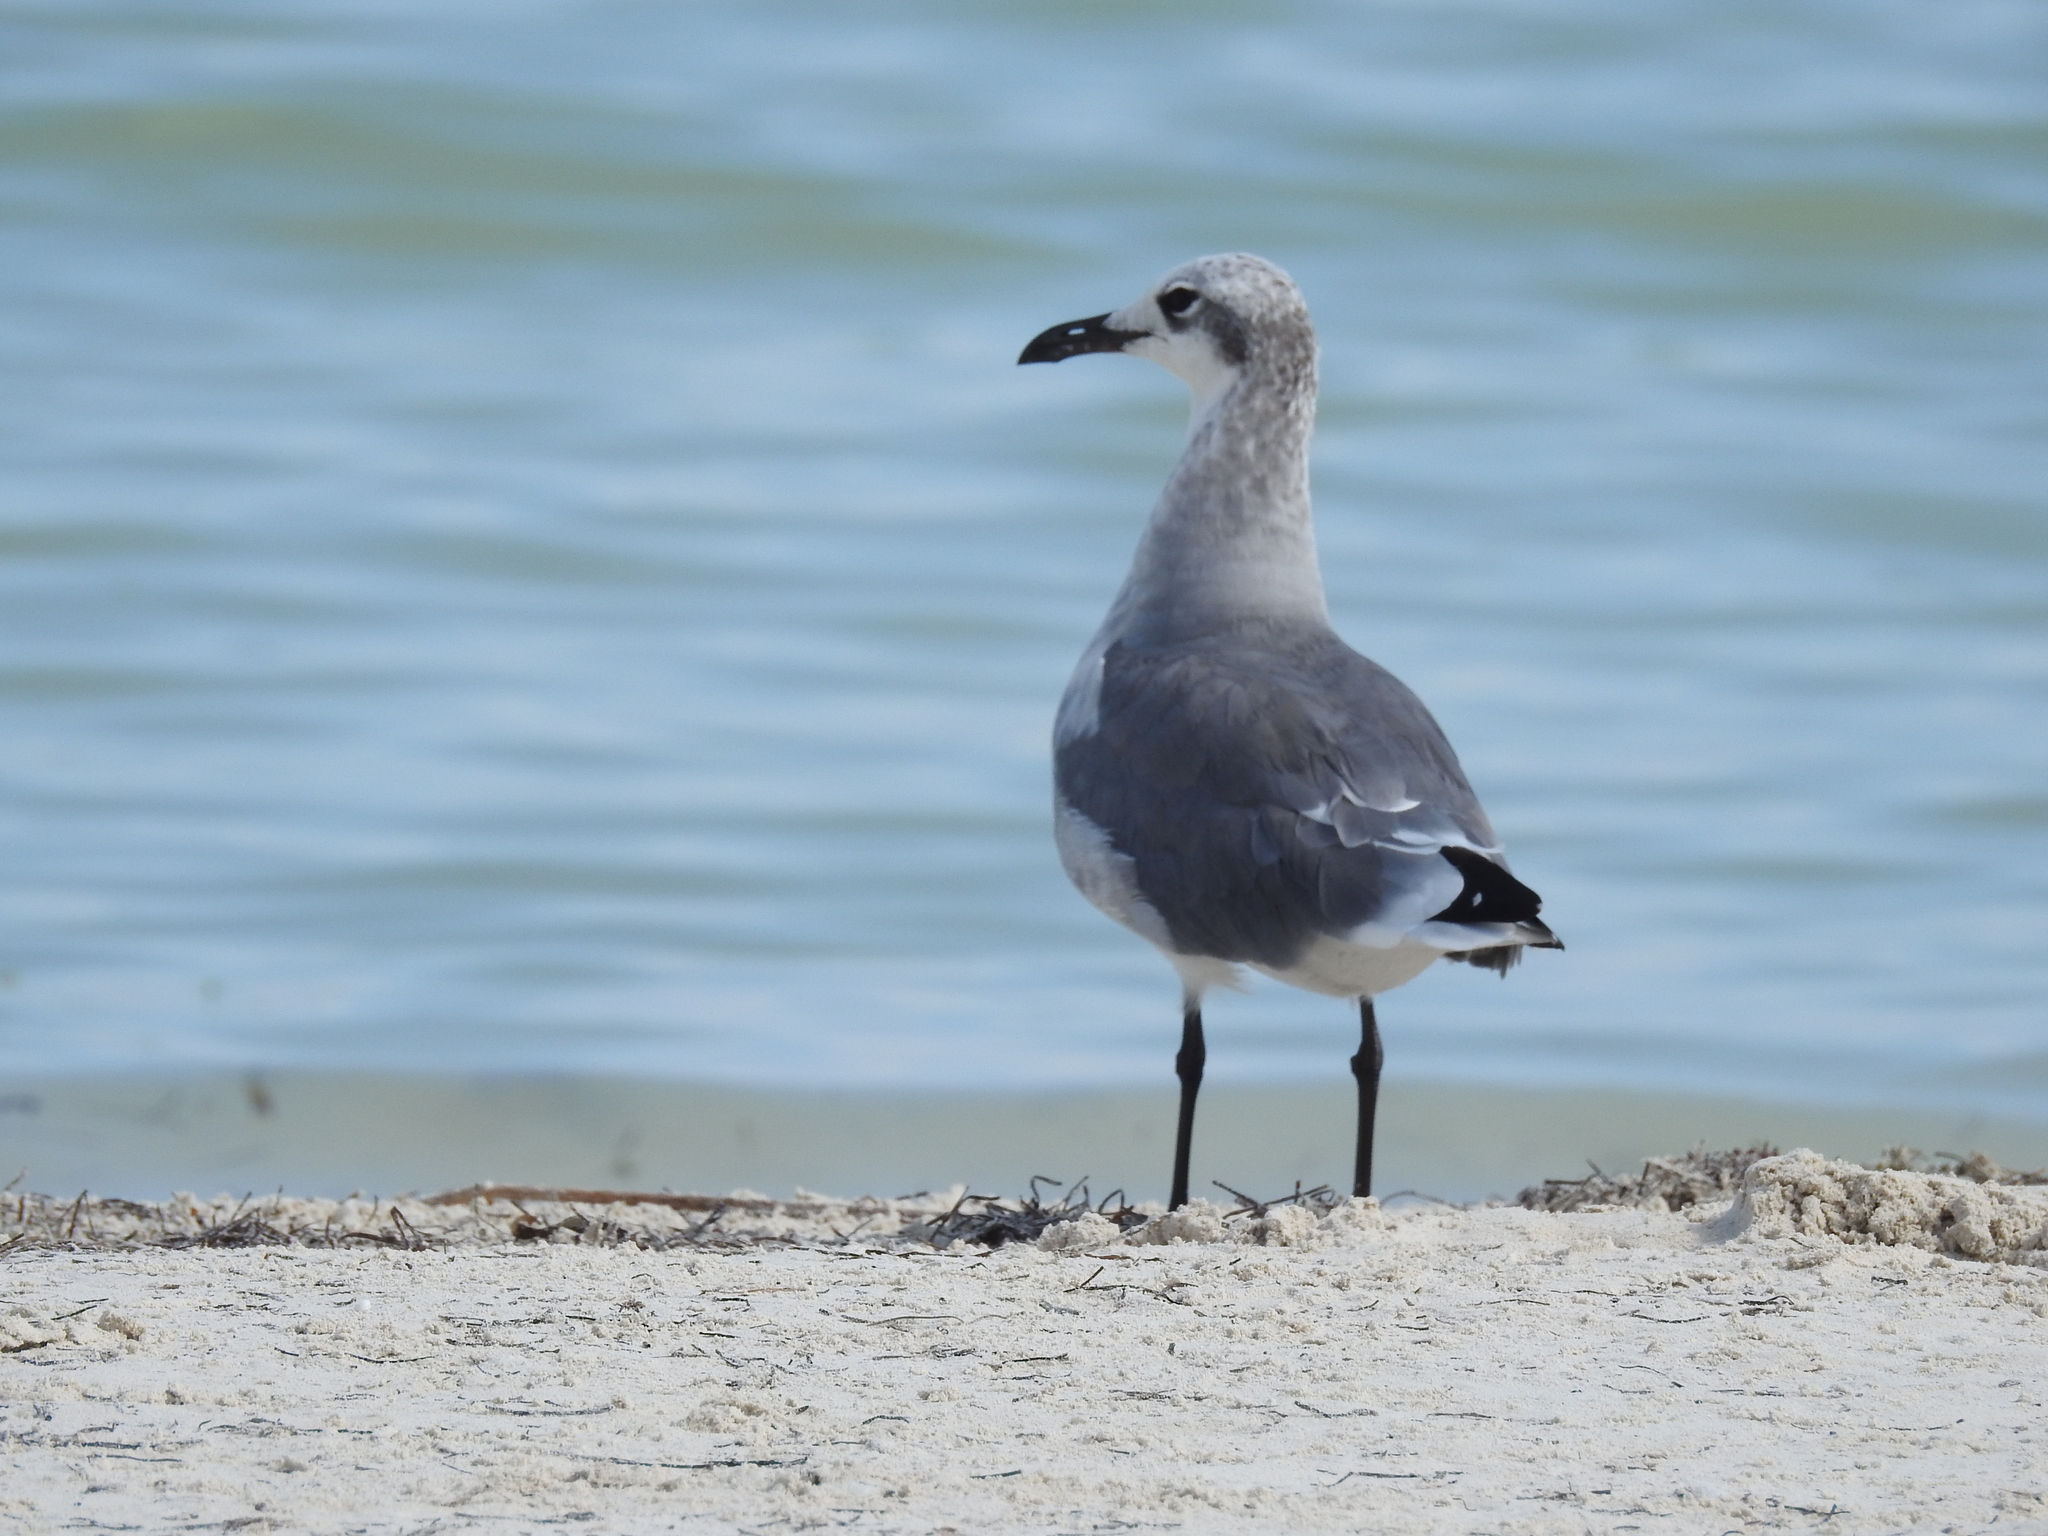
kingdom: Animalia
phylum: Chordata
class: Aves
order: Charadriiformes
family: Laridae
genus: Leucophaeus
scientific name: Leucophaeus atricilla
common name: Laughing gull
